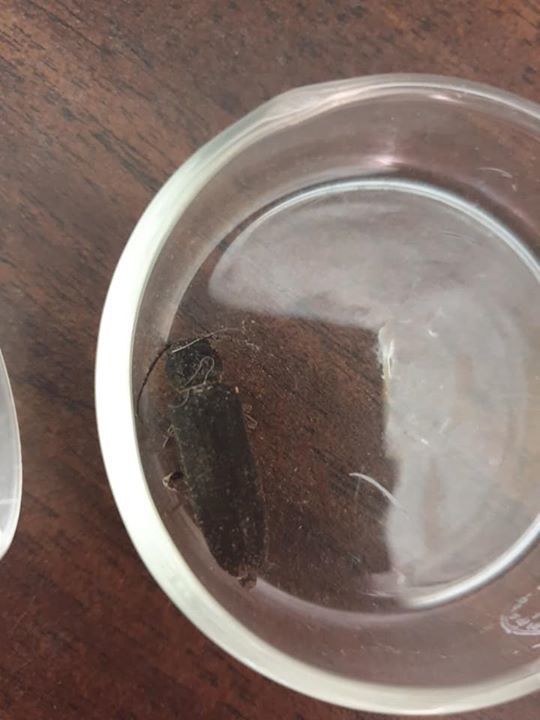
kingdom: Animalia
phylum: Arthropoda
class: Insecta
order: Coleoptera
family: Cerambycidae
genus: Arhopalus
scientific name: Arhopalus ferus
